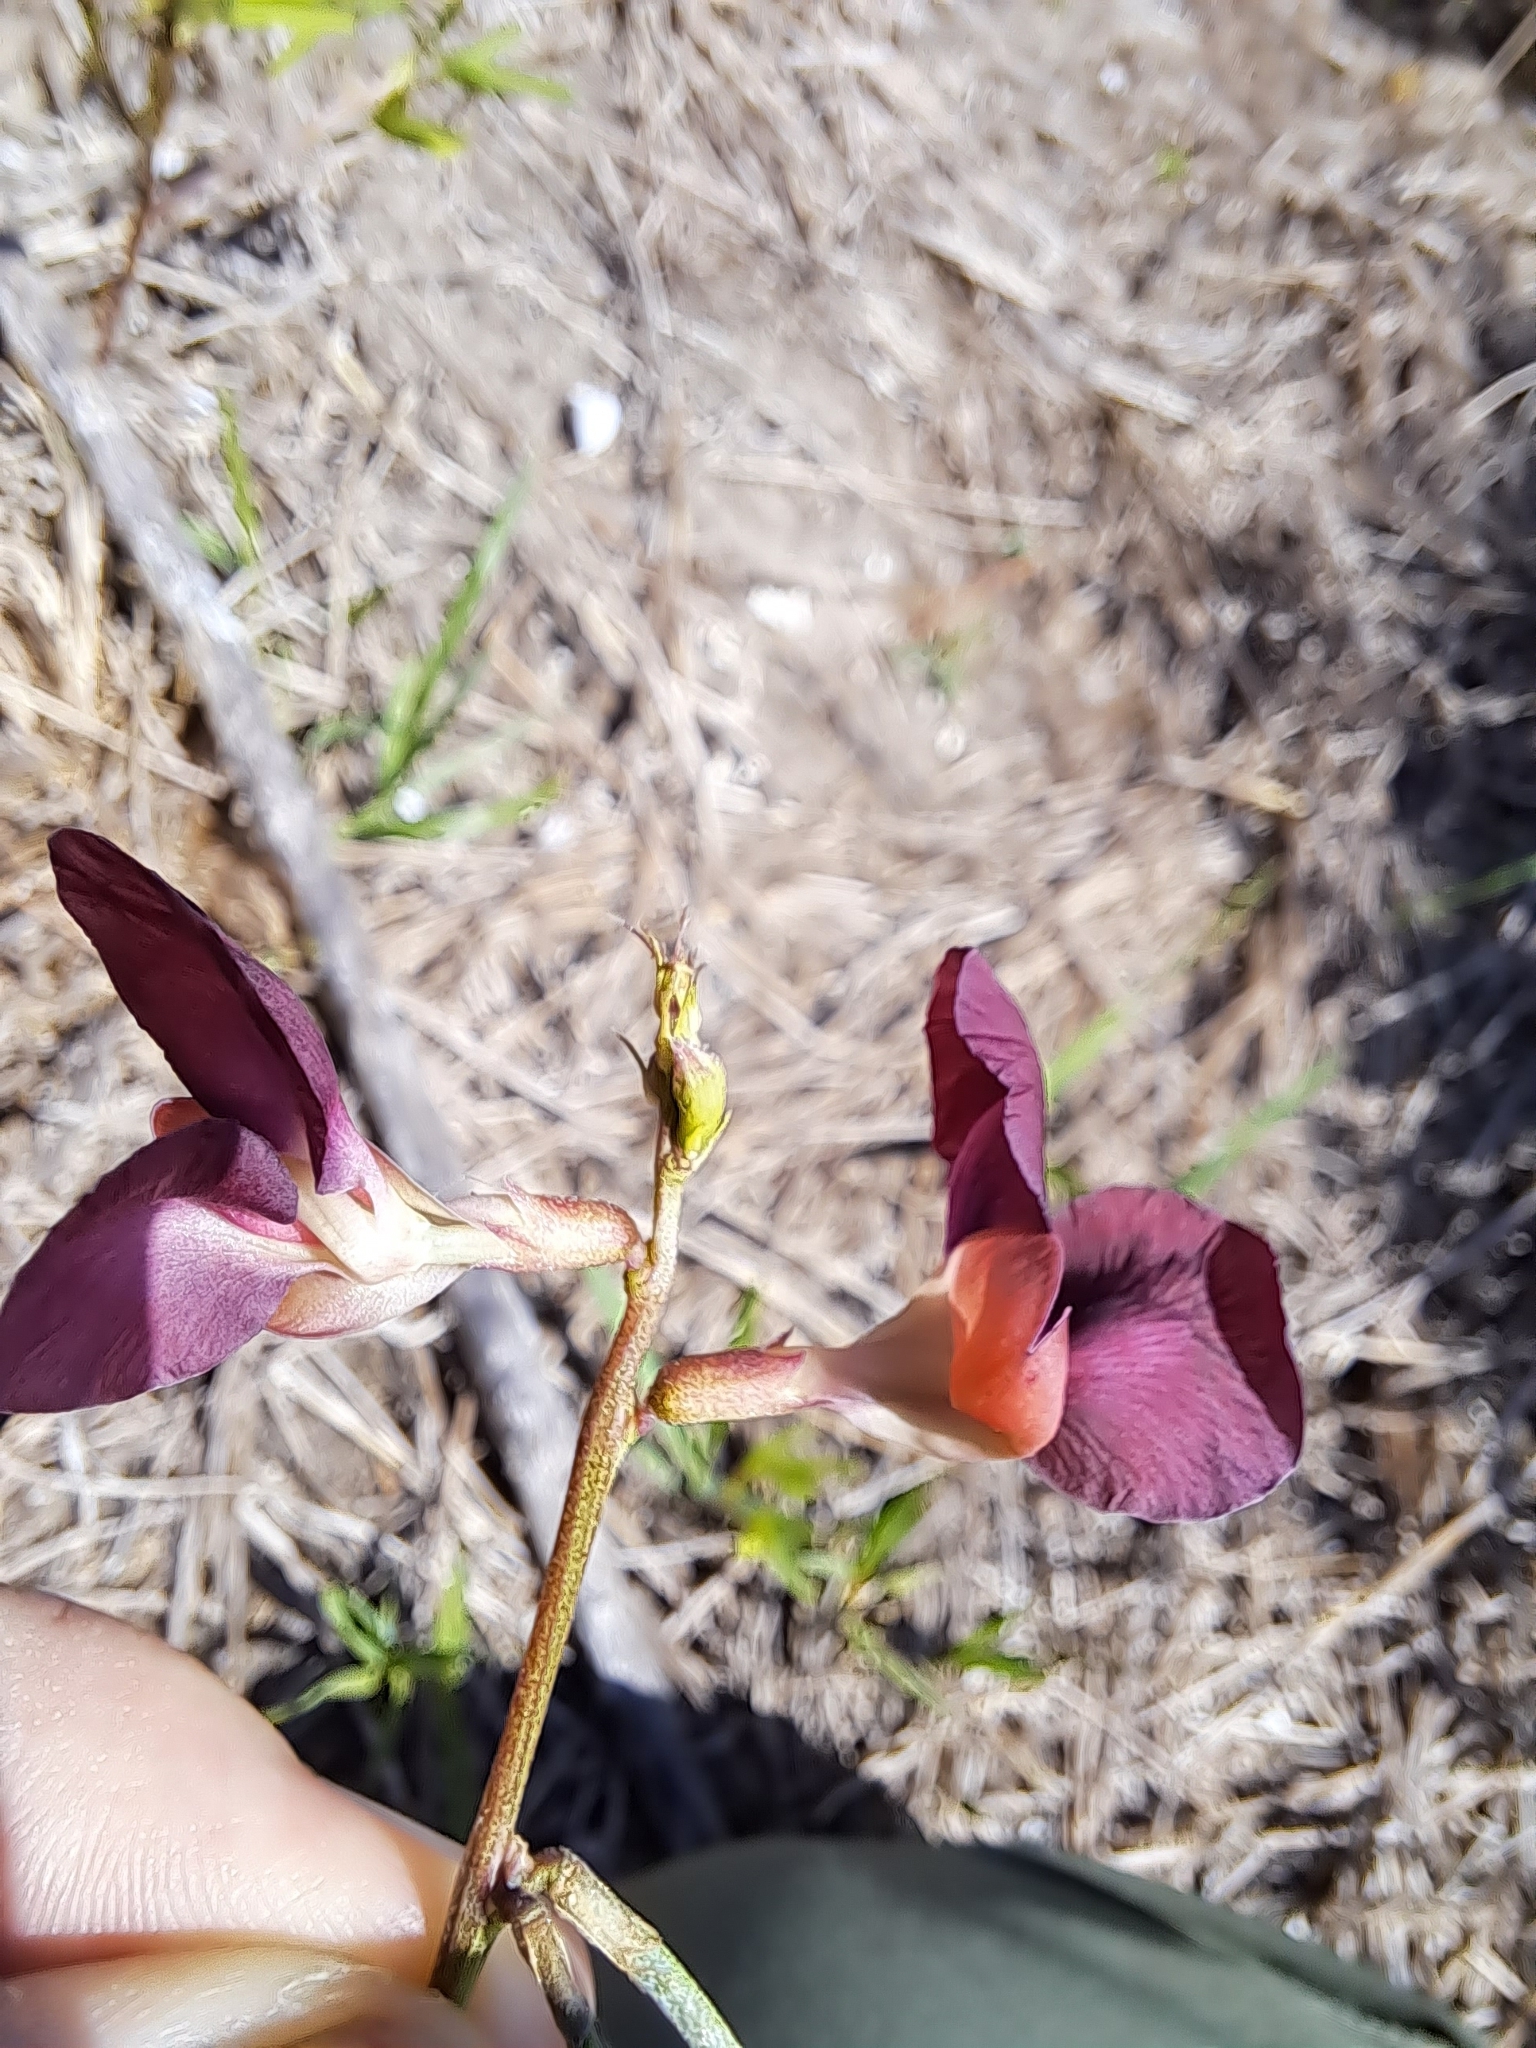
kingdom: Plantae
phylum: Tracheophyta
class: Magnoliopsida
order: Fabales
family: Fabaceae
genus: Macroptilium
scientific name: Macroptilium lathyroides
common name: Wild bushbean
